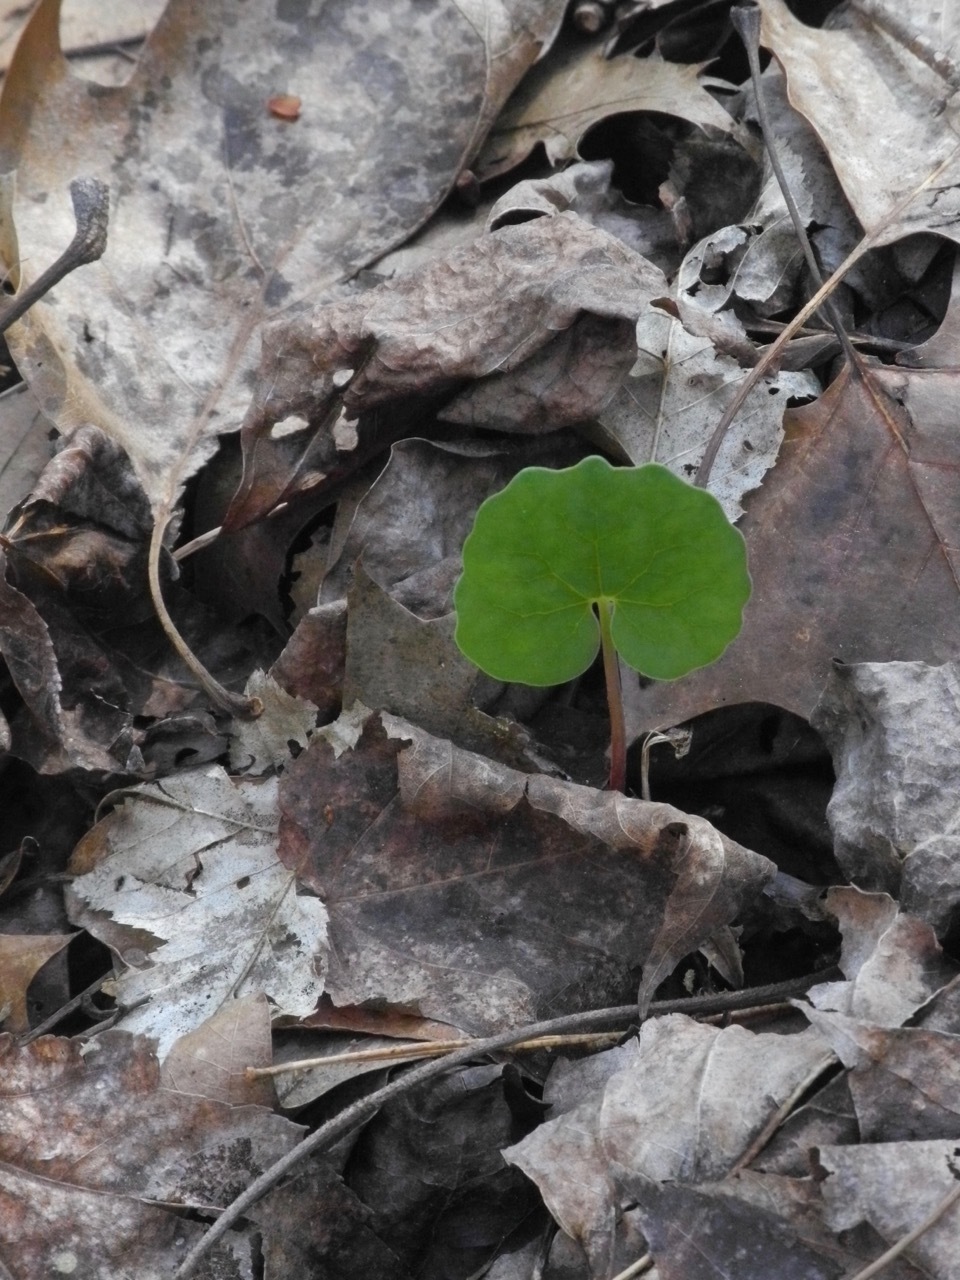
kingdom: Plantae
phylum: Tracheophyta
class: Magnoliopsida
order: Ranunculales
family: Papaveraceae
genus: Sanguinaria
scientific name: Sanguinaria canadensis
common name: Bloodroot
